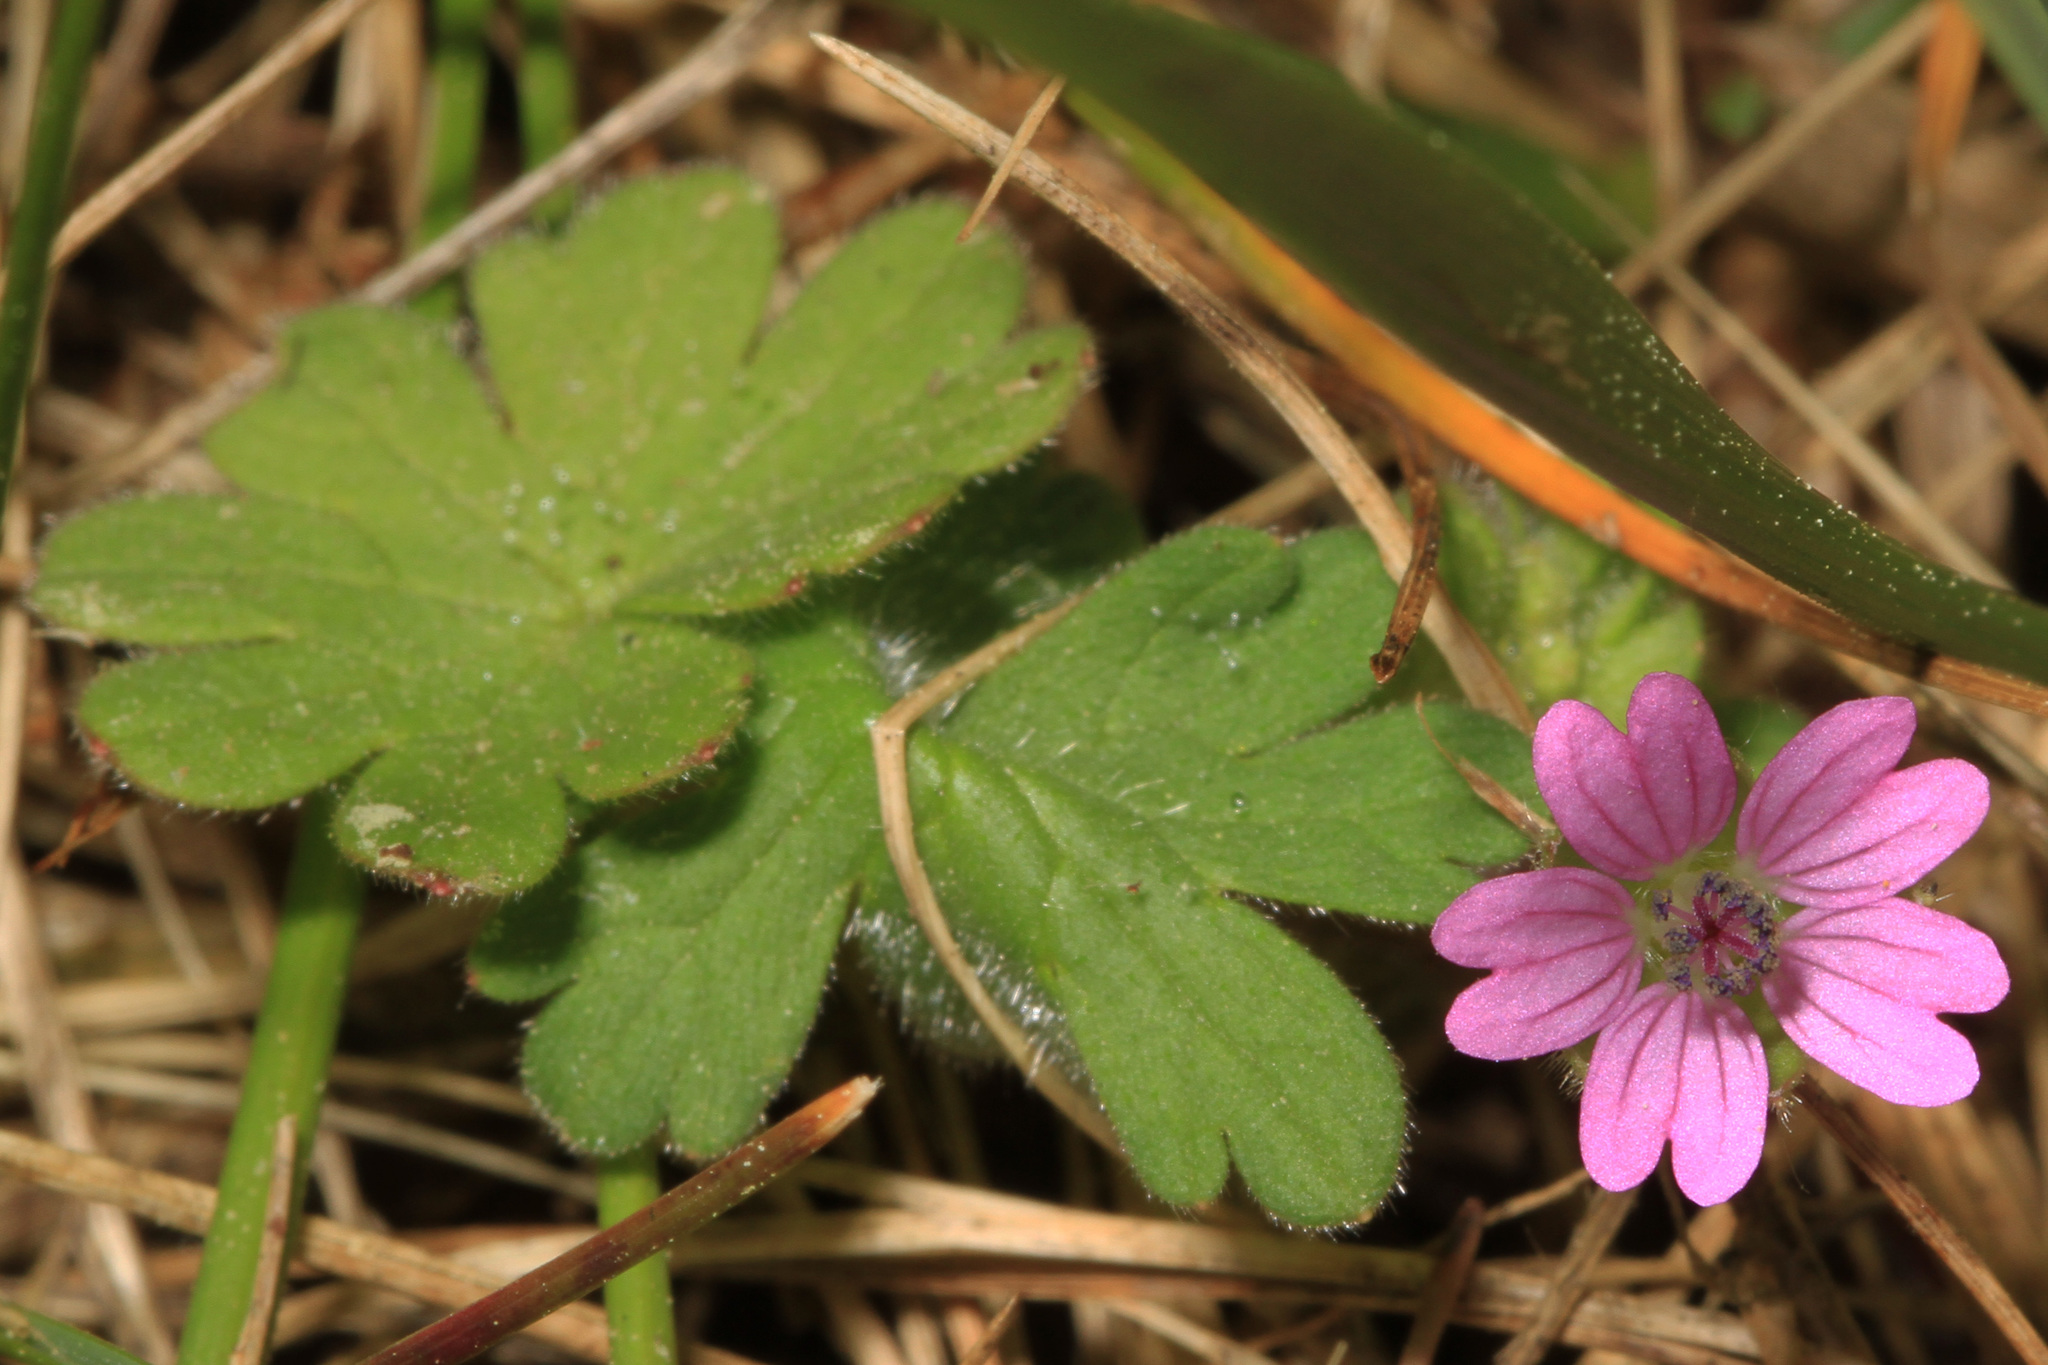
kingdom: Plantae
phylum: Tracheophyta
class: Magnoliopsida
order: Geraniales
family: Geraniaceae
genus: Geranium
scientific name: Geranium molle
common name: Dove's-foot crane's-bill
